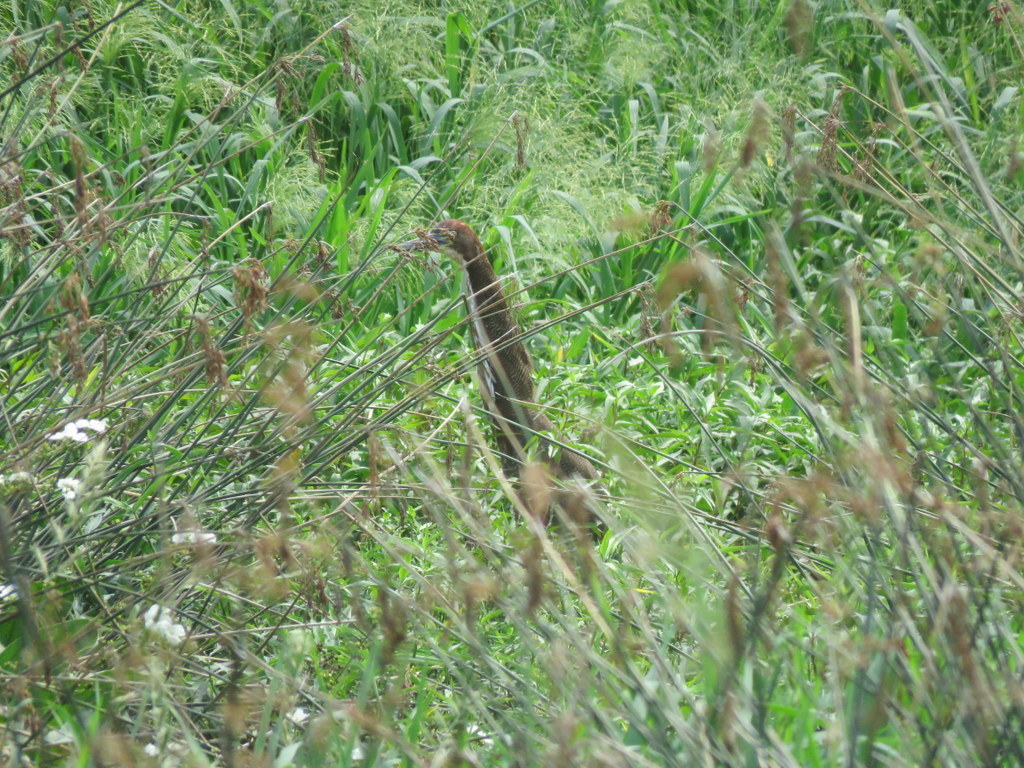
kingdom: Animalia
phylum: Chordata
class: Aves
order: Pelecaniformes
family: Ardeidae
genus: Tigrisoma
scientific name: Tigrisoma lineatum
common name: Rufescent tiger-heron
